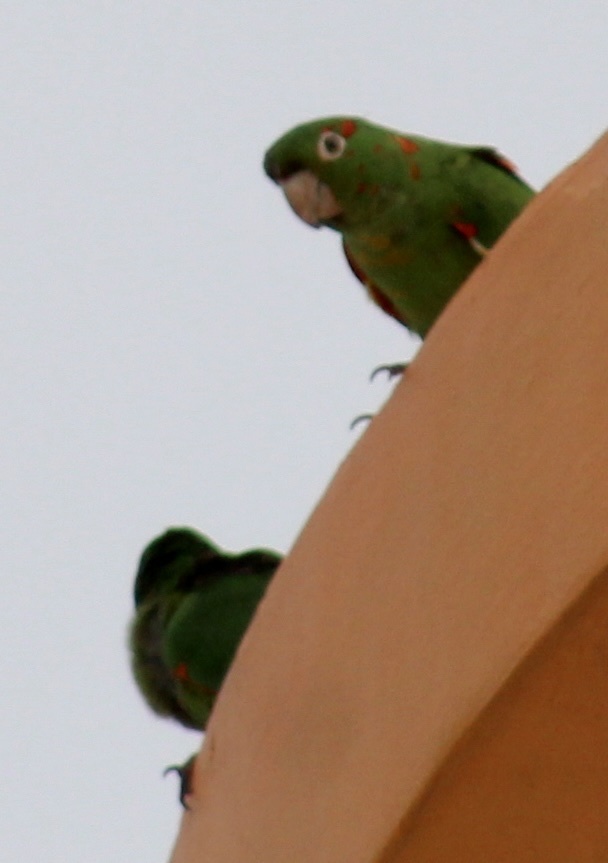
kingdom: Animalia
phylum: Chordata
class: Aves
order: Psittaciformes
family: Psittacidae
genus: Aratinga
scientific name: Aratinga leucophthalma
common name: White-eyed parakeet
